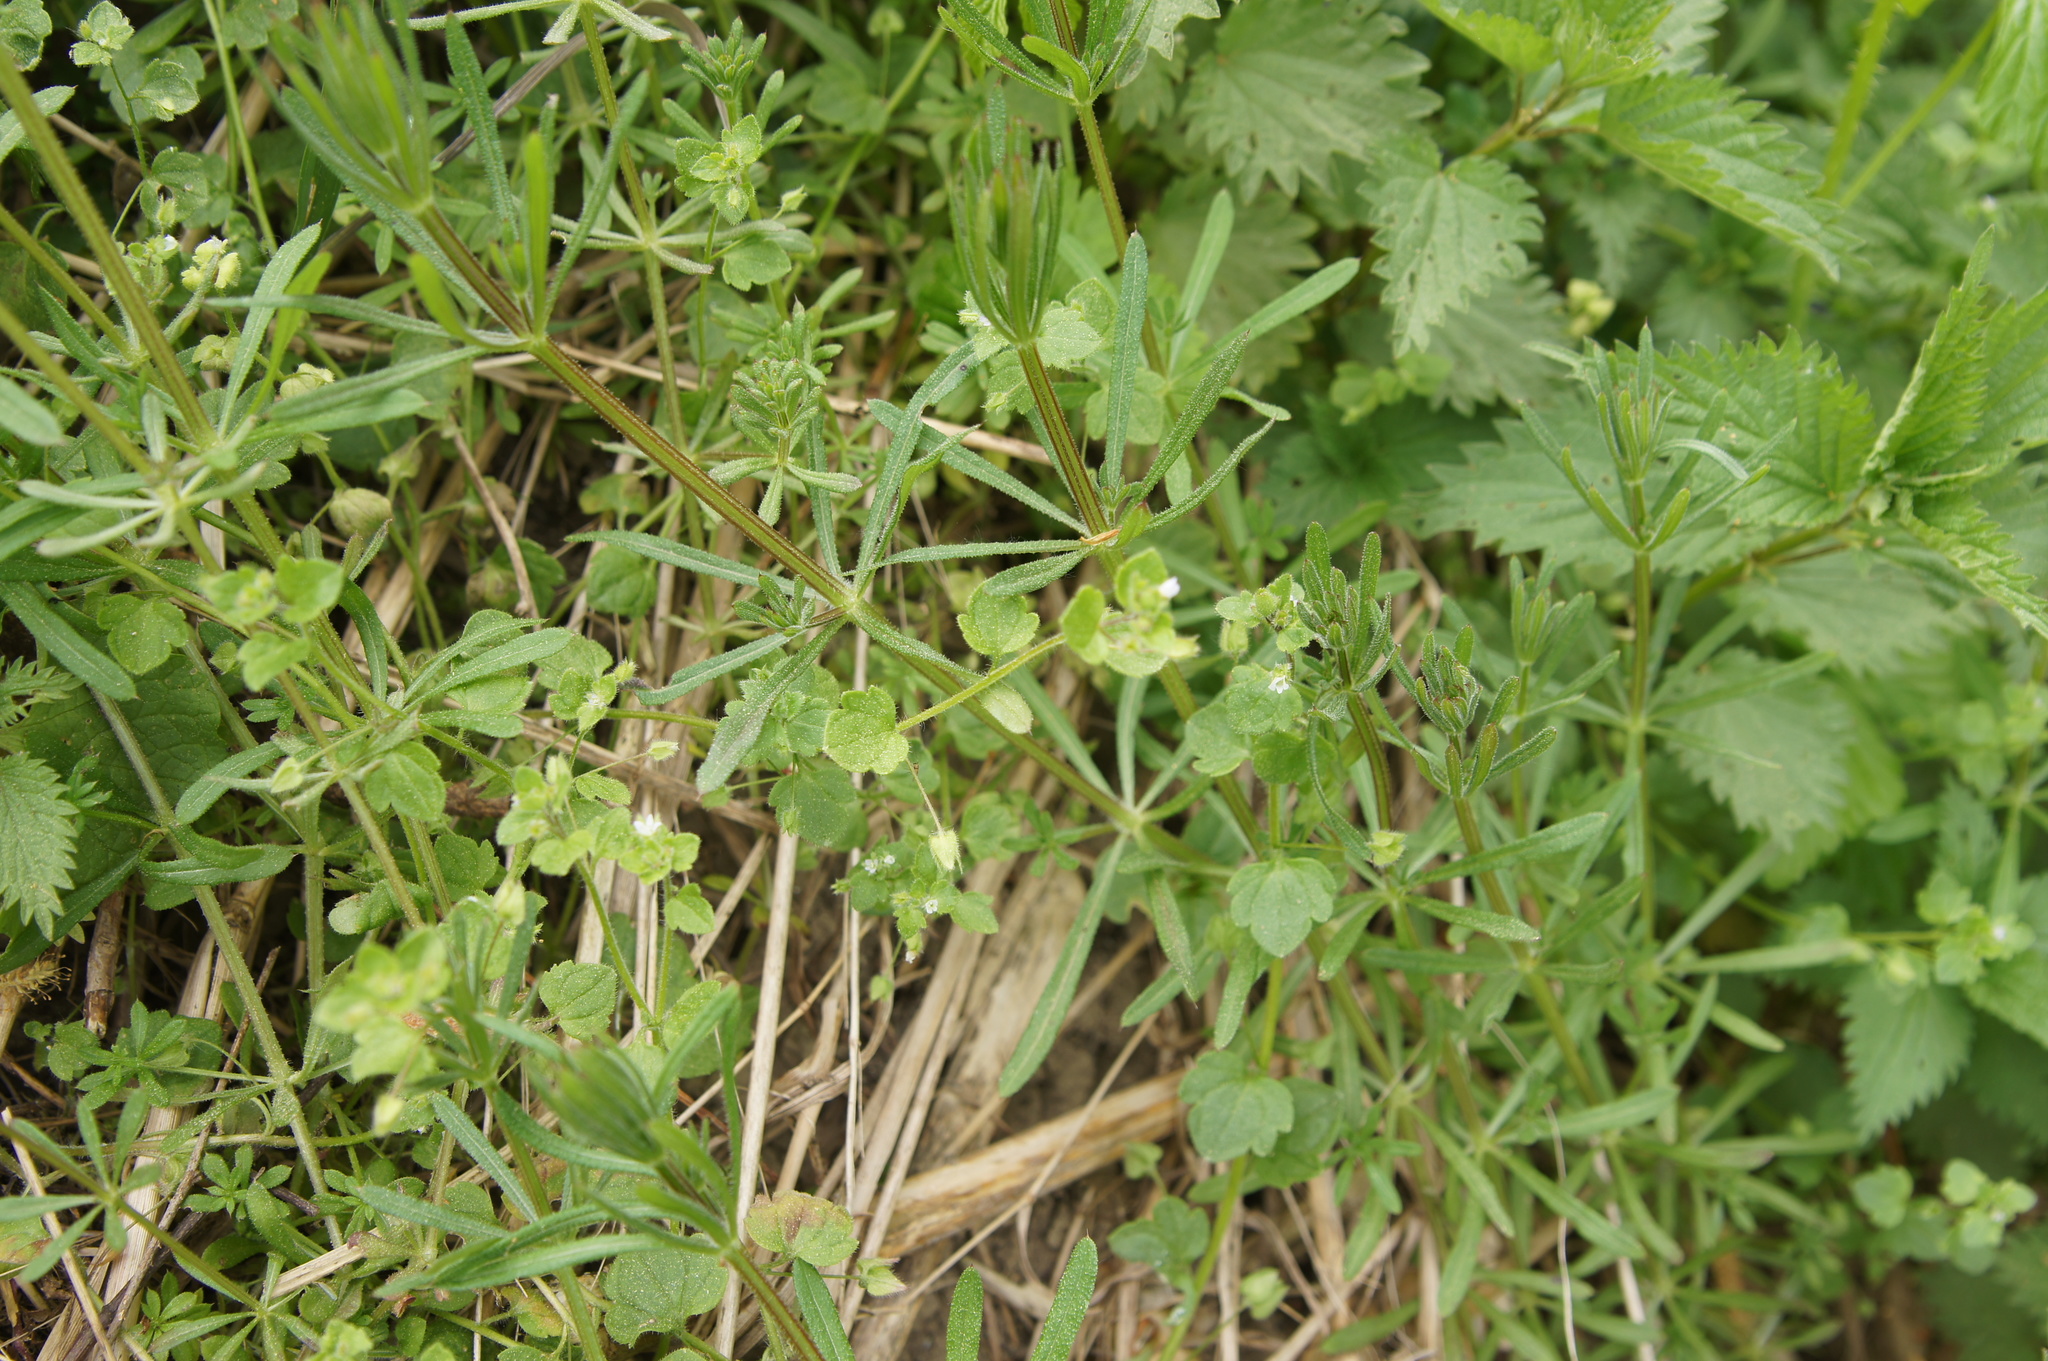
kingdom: Plantae
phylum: Tracheophyta
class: Magnoliopsida
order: Lamiales
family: Plantaginaceae
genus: Veronica
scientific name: Veronica sublobata
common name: False ivy-leaved speedwell
